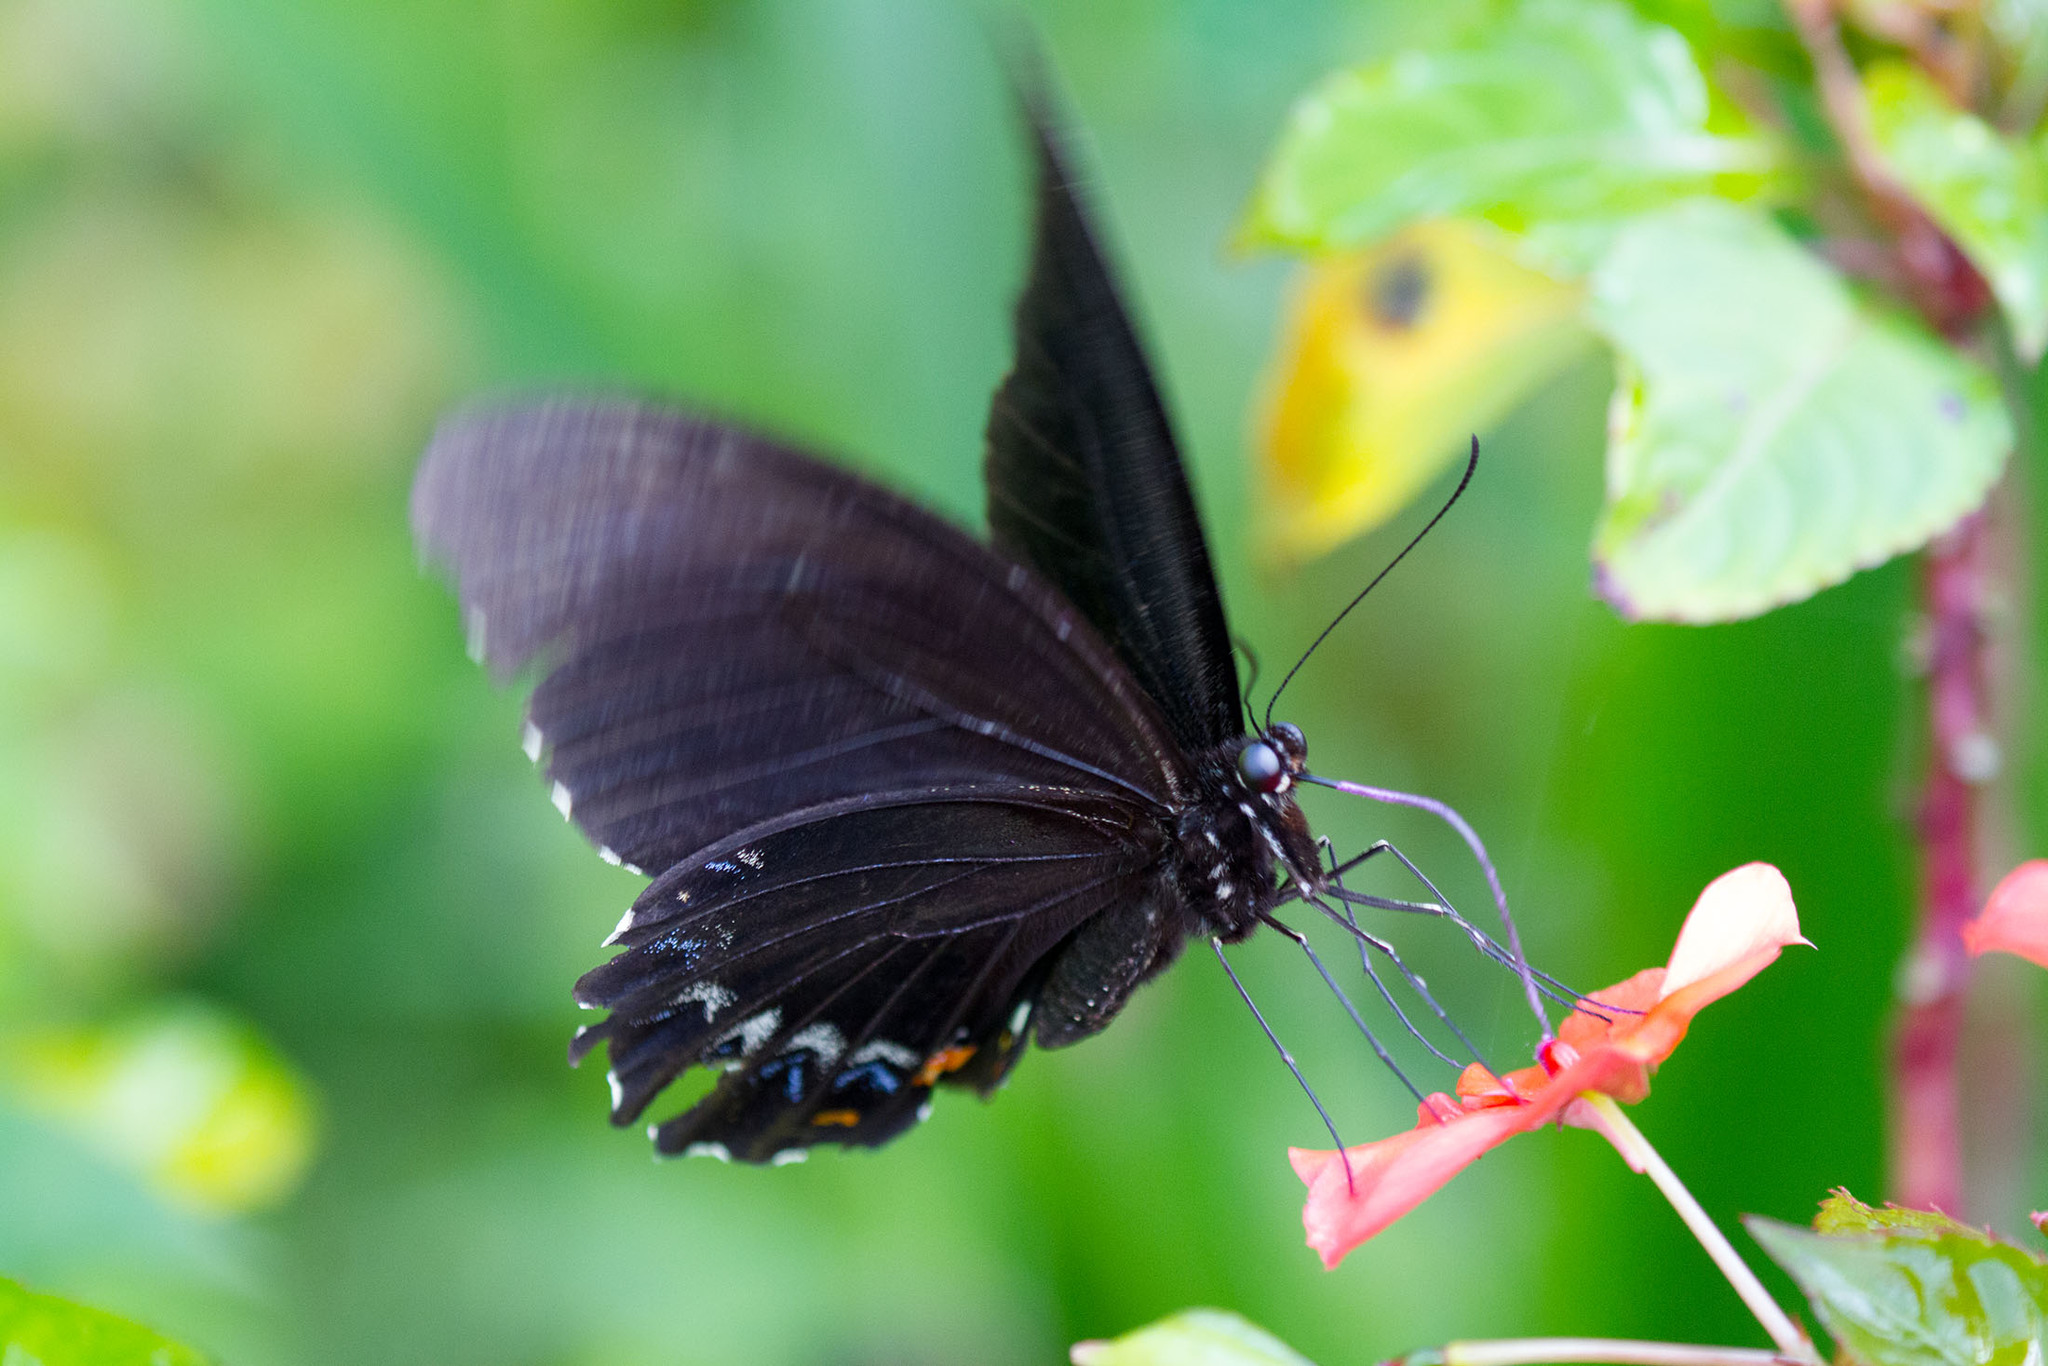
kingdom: Animalia
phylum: Arthropoda
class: Insecta
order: Lepidoptera
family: Papilionidae
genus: Papilio
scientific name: Papilio aegeus
